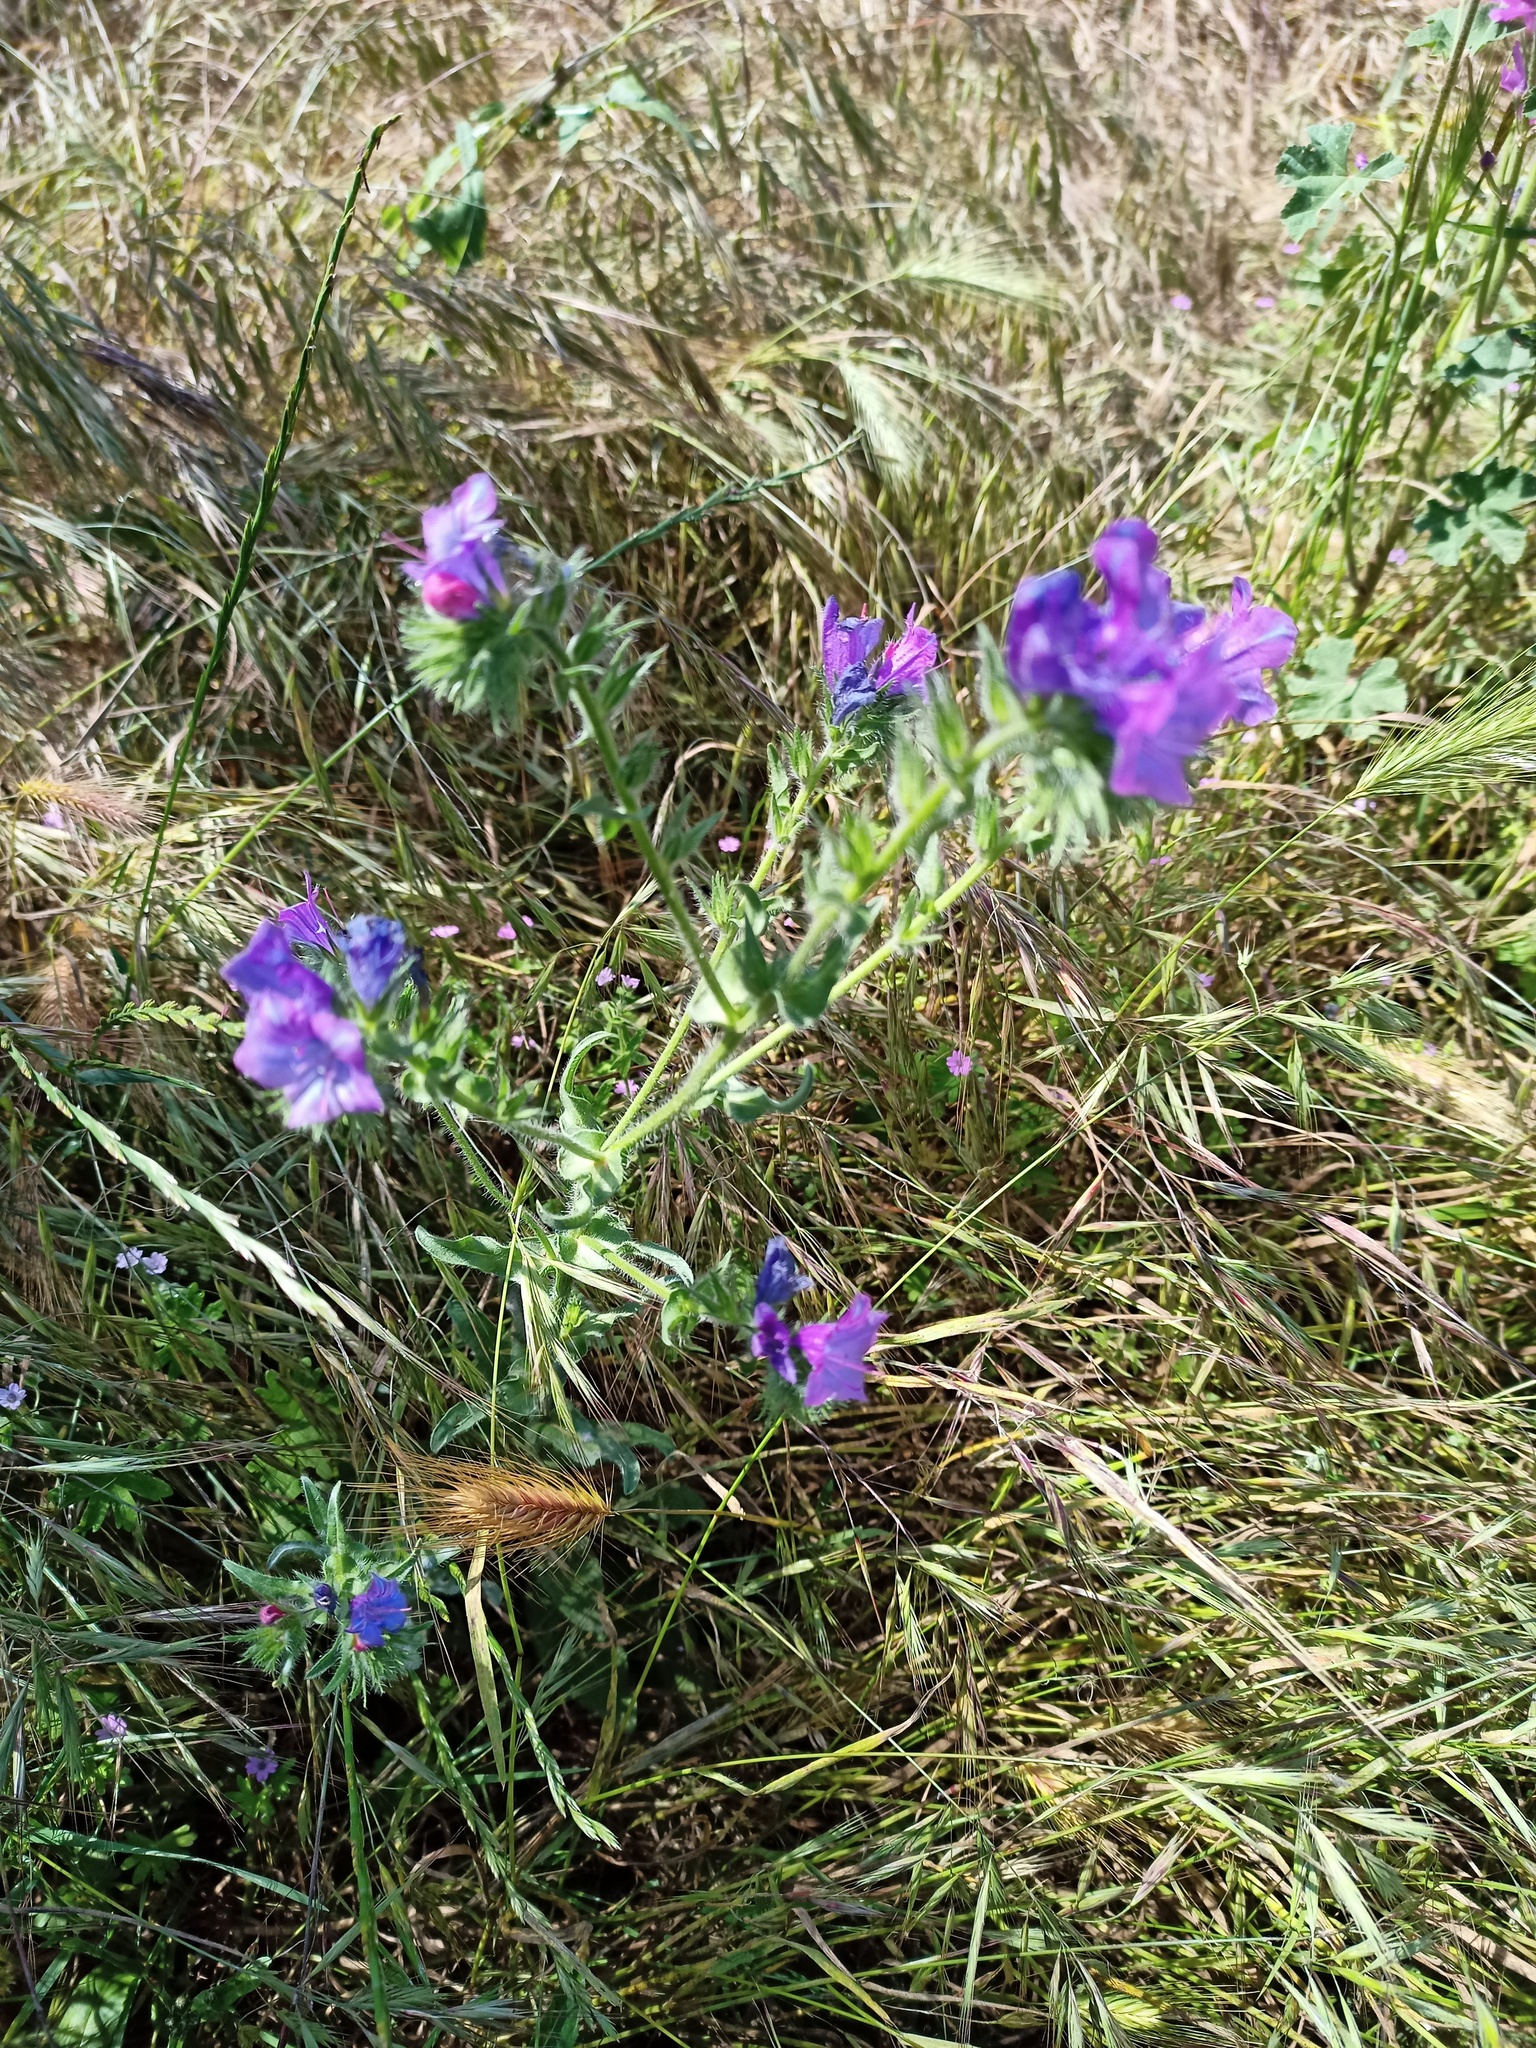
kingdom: Plantae
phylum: Tracheophyta
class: Magnoliopsida
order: Boraginales
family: Boraginaceae
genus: Echium
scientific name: Echium plantagineum
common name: Purple viper's-bugloss
